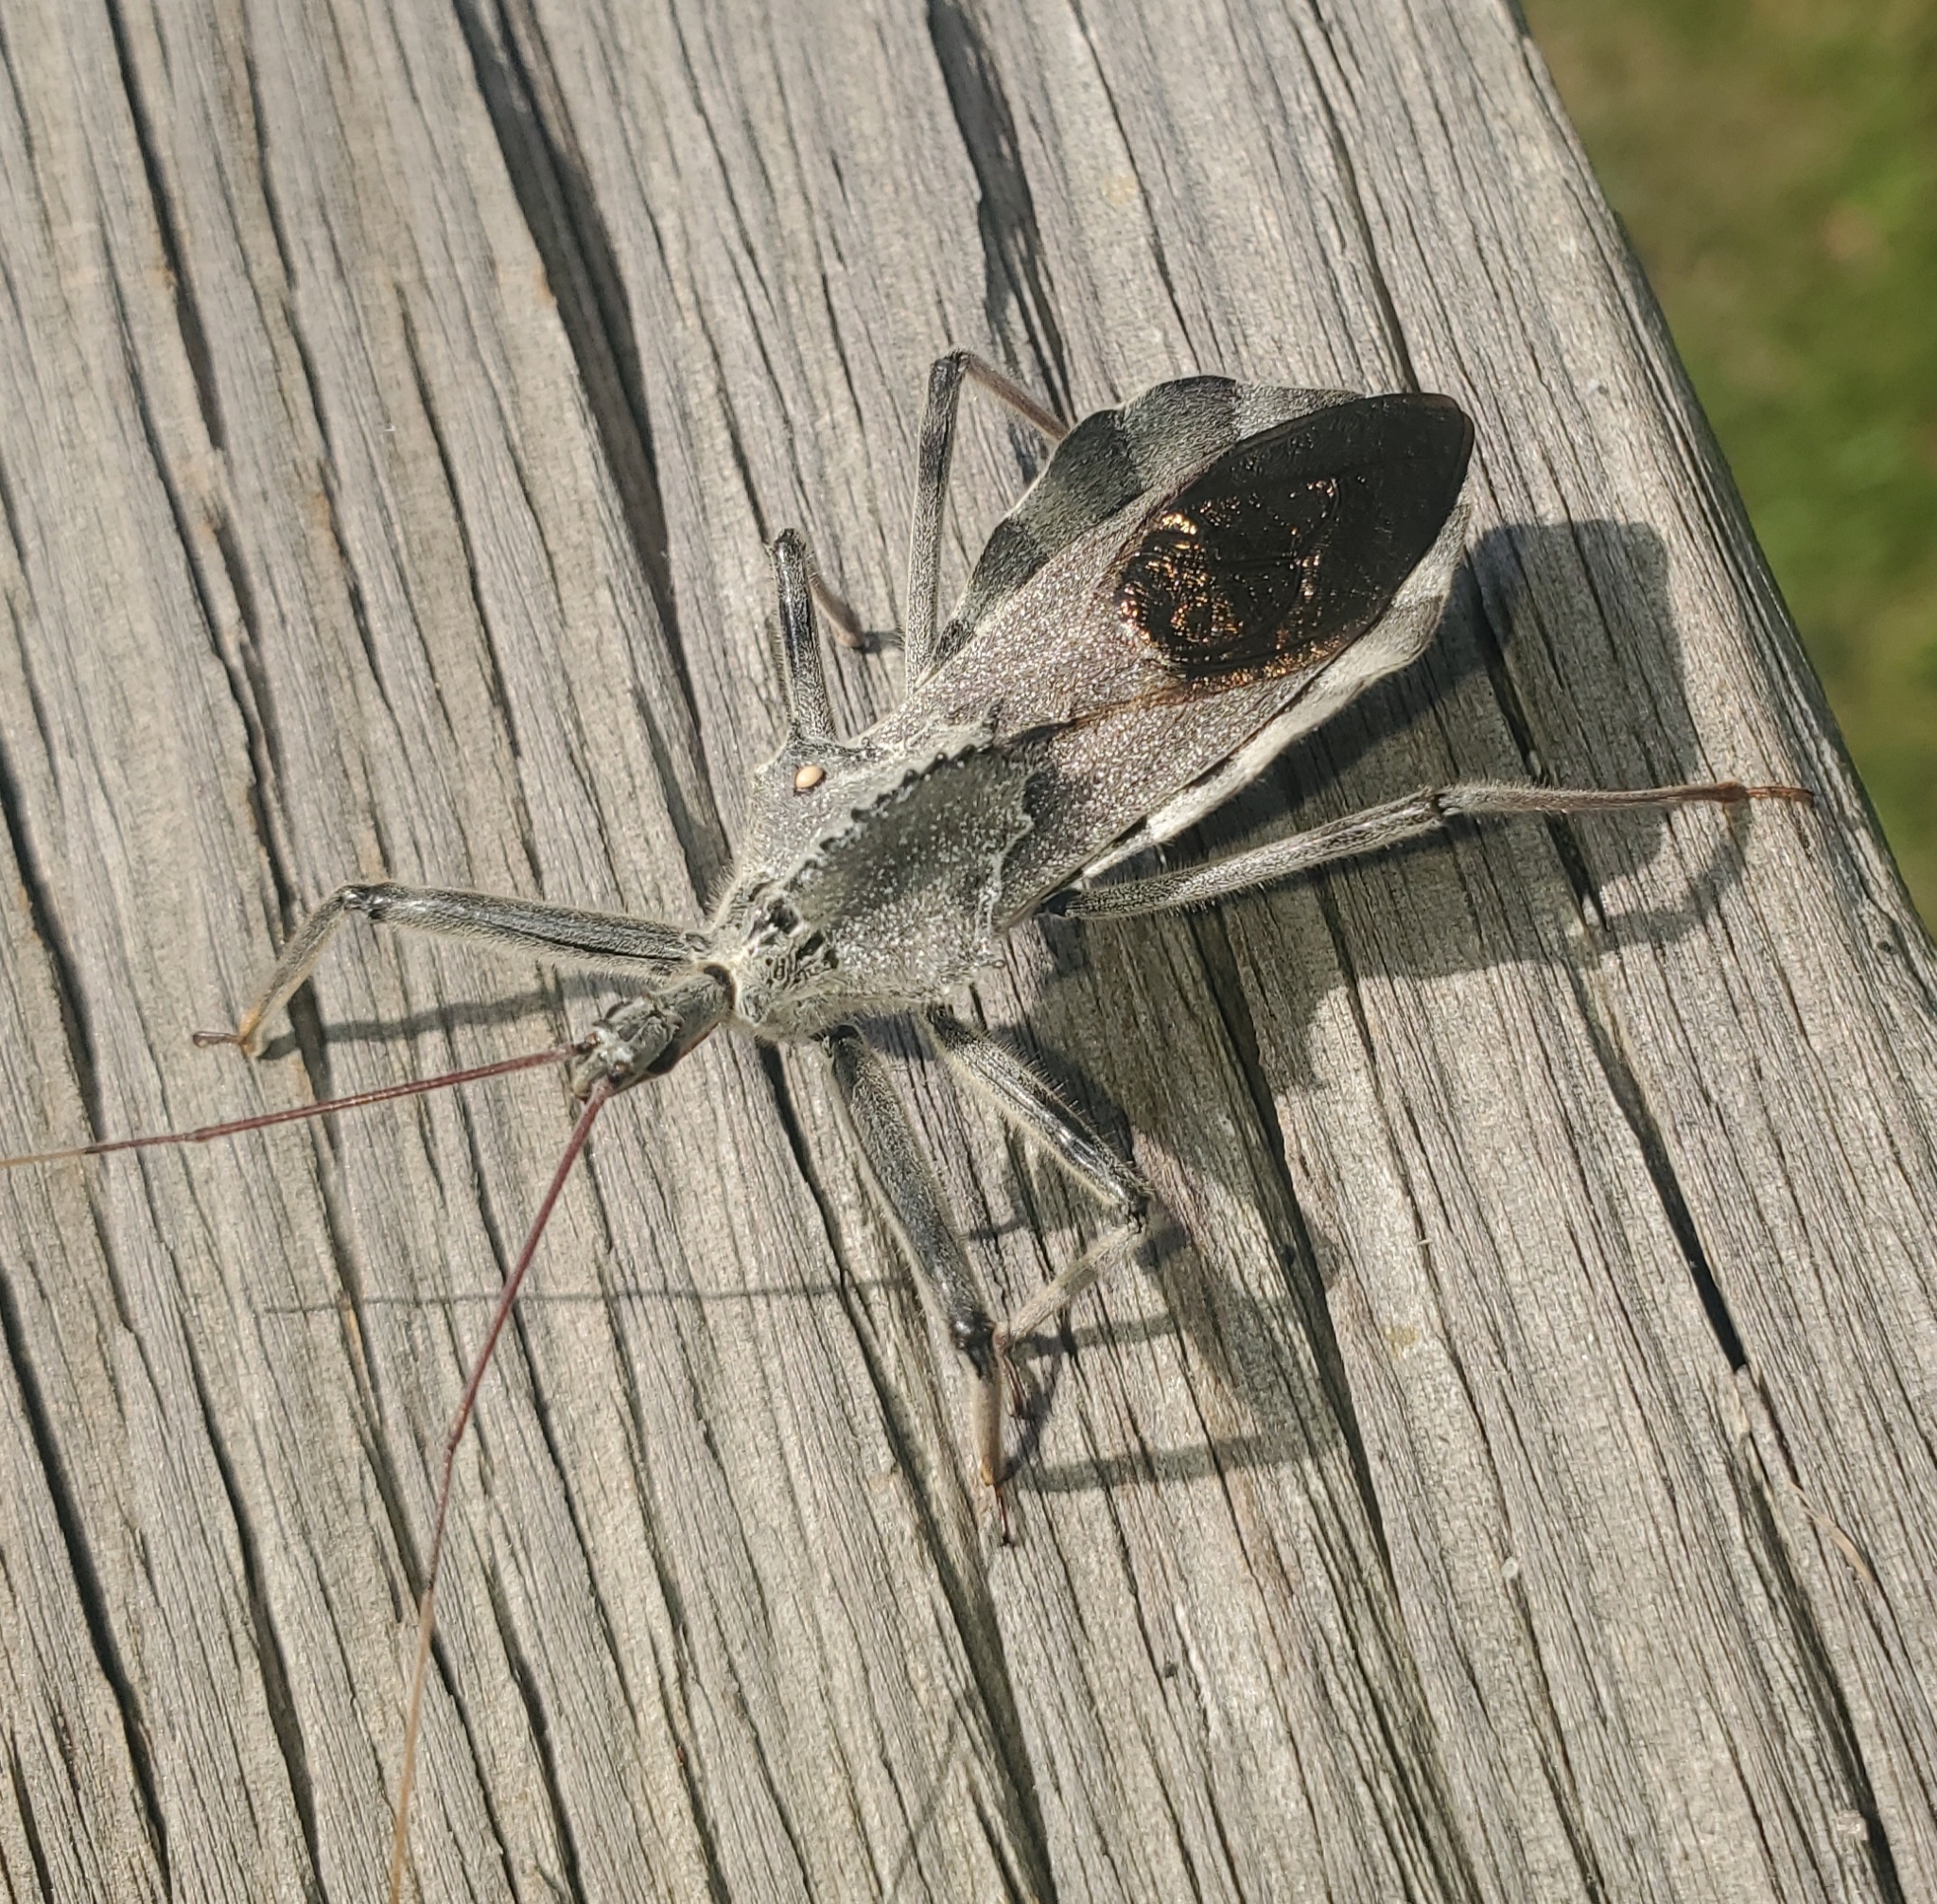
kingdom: Animalia
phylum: Arthropoda
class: Insecta
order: Hemiptera
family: Reduviidae
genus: Arilus
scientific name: Arilus cristatus
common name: North american wheel bug
